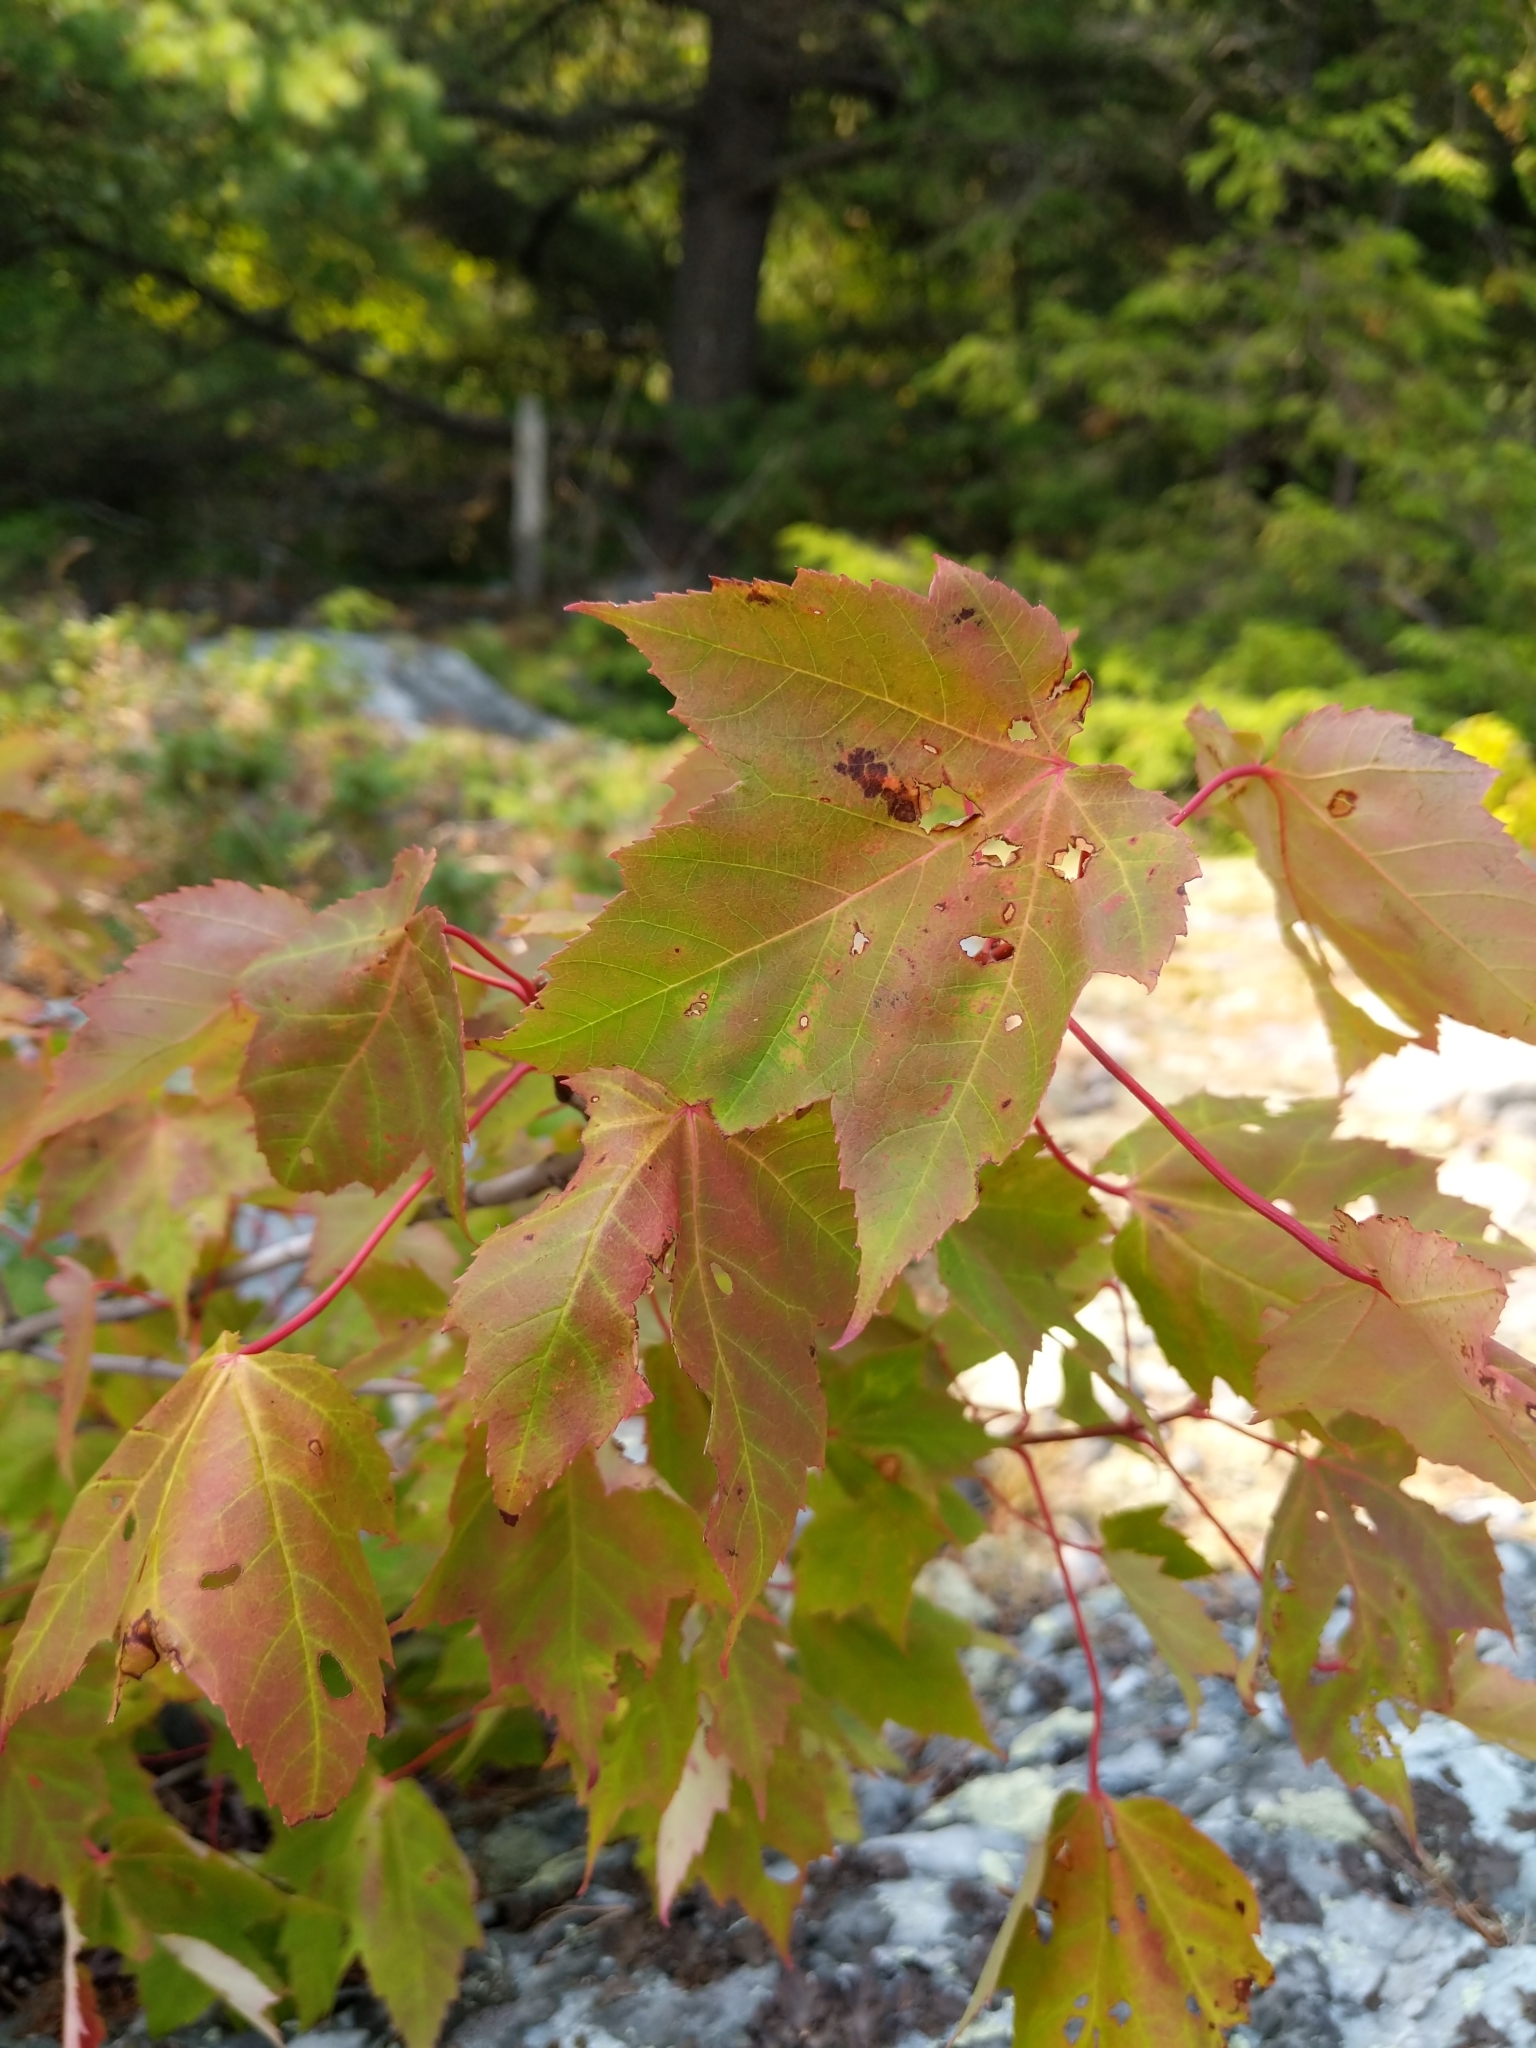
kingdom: Plantae
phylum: Tracheophyta
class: Magnoliopsida
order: Sapindales
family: Sapindaceae
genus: Acer
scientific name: Acer rubrum
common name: Red maple
